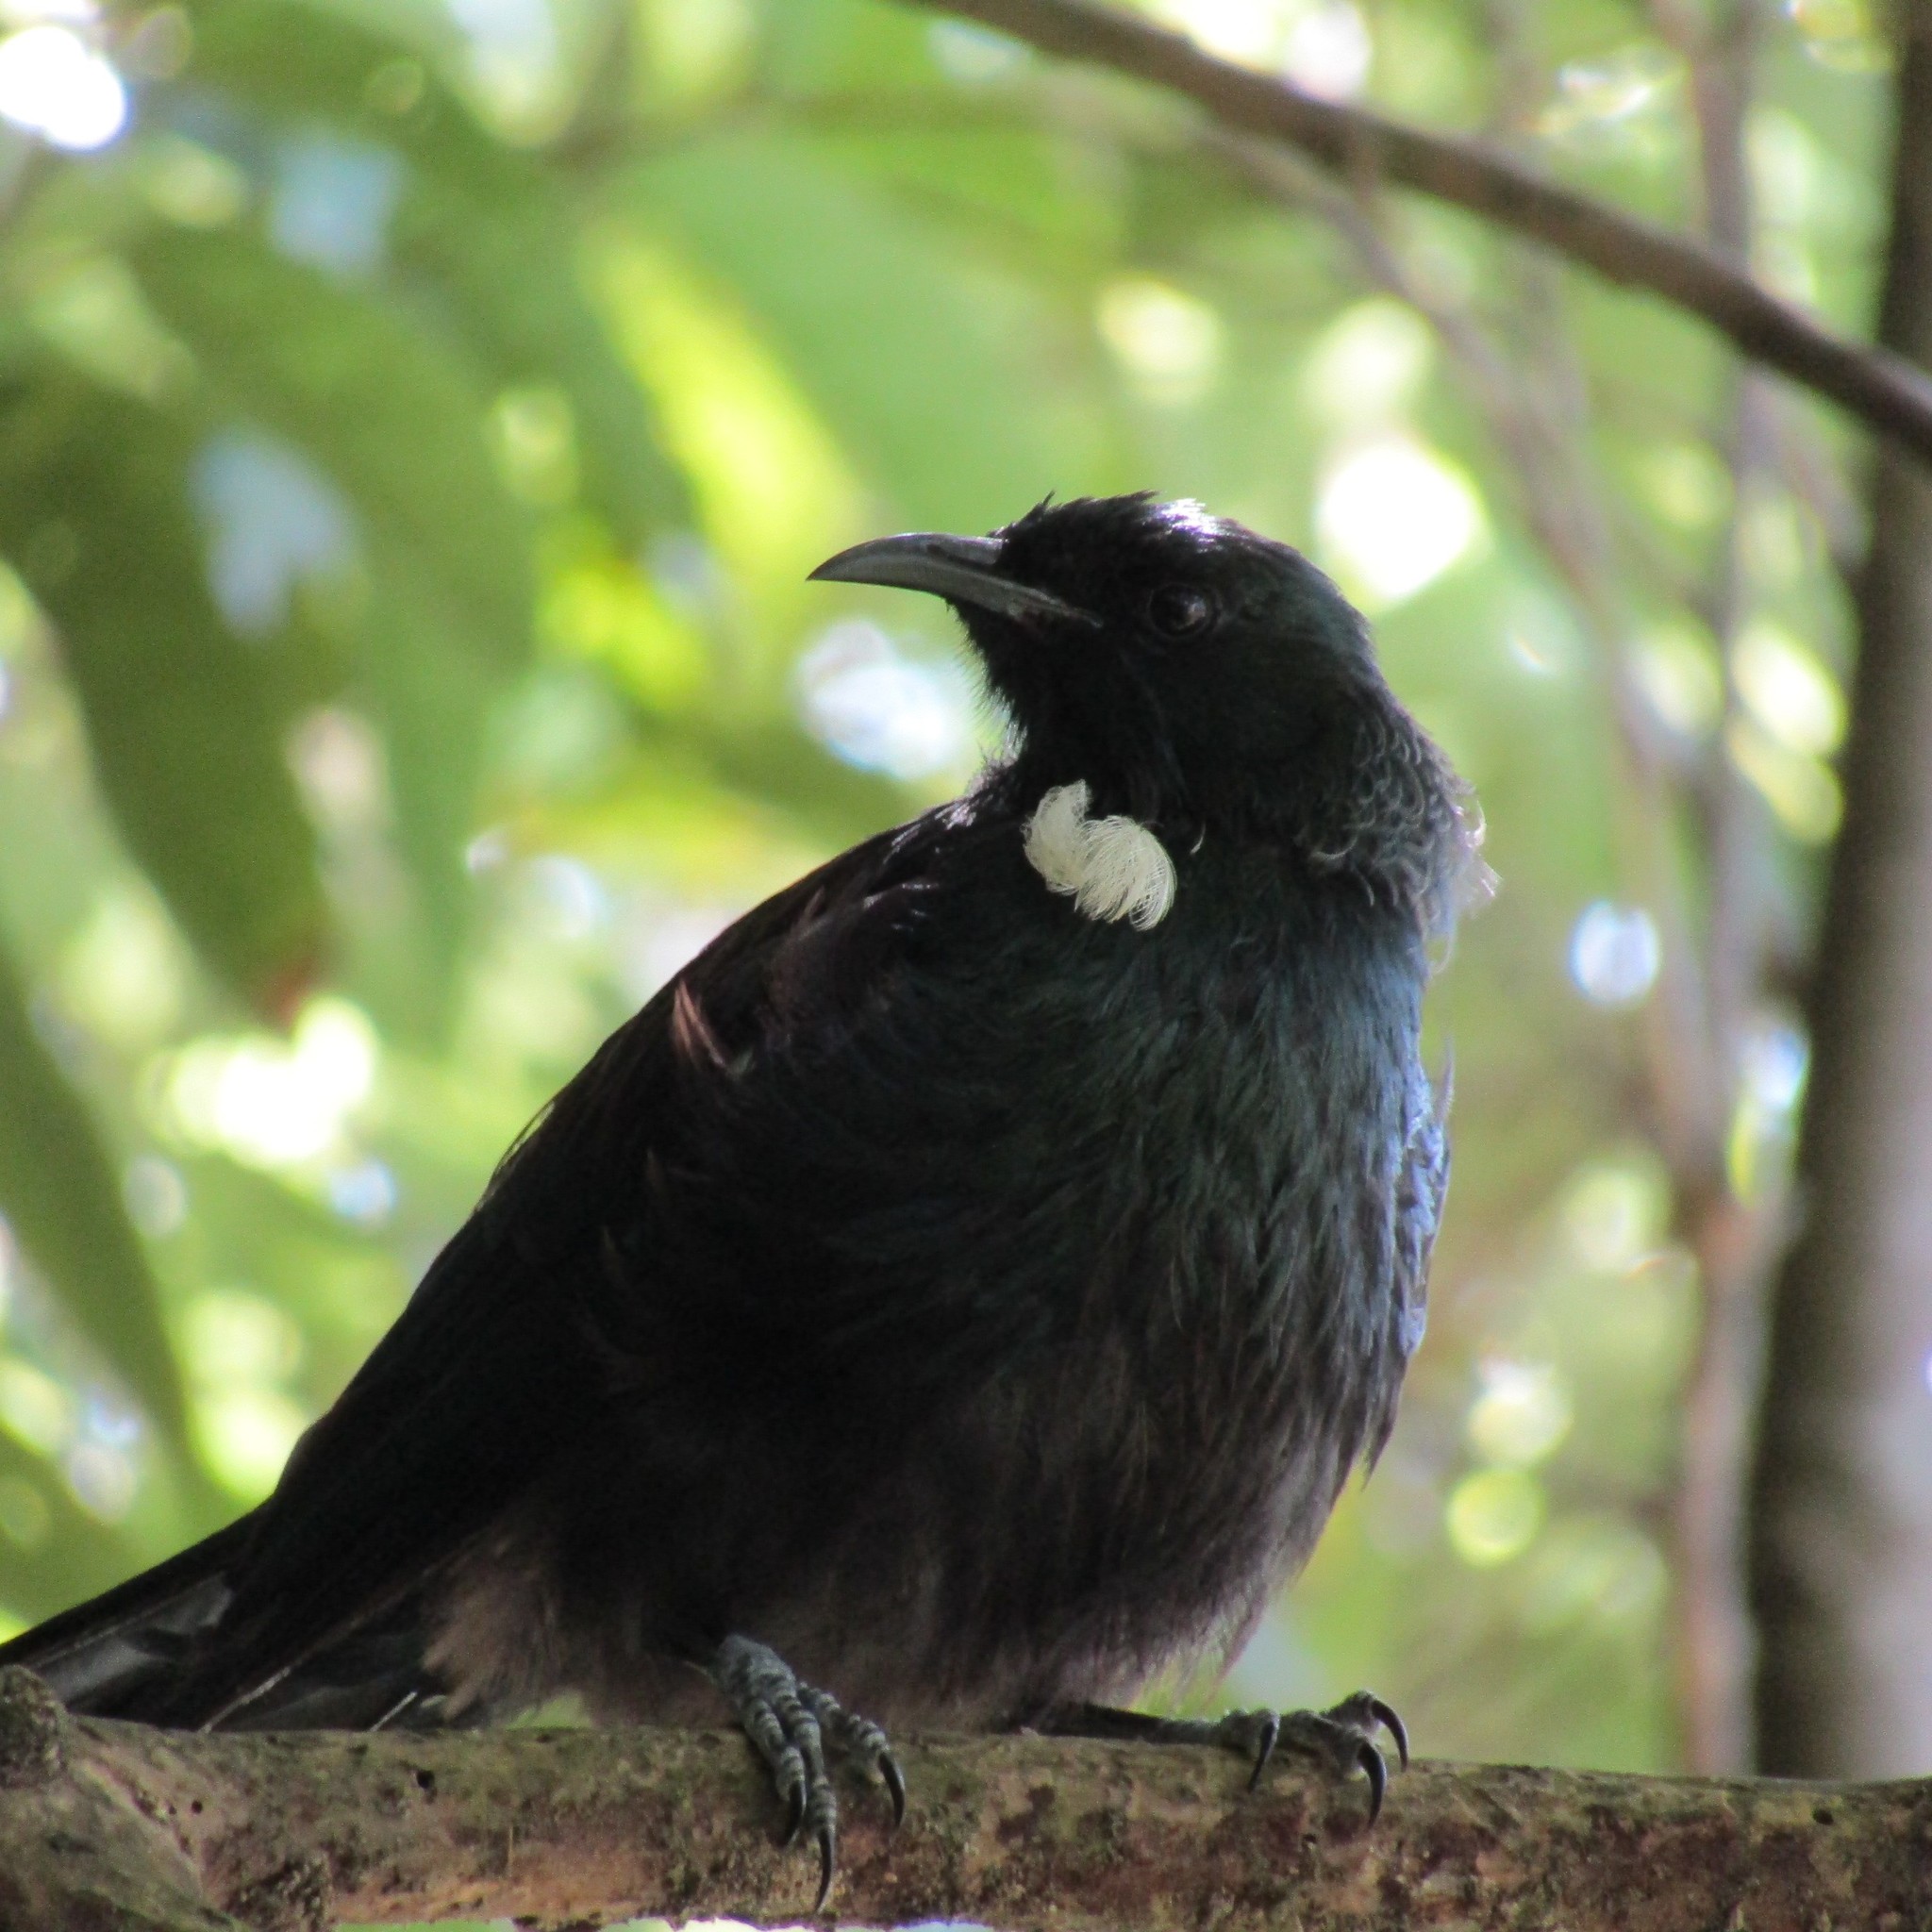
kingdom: Animalia
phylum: Chordata
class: Aves
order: Passeriformes
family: Meliphagidae
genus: Prosthemadera
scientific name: Prosthemadera novaeseelandiae
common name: Tui
